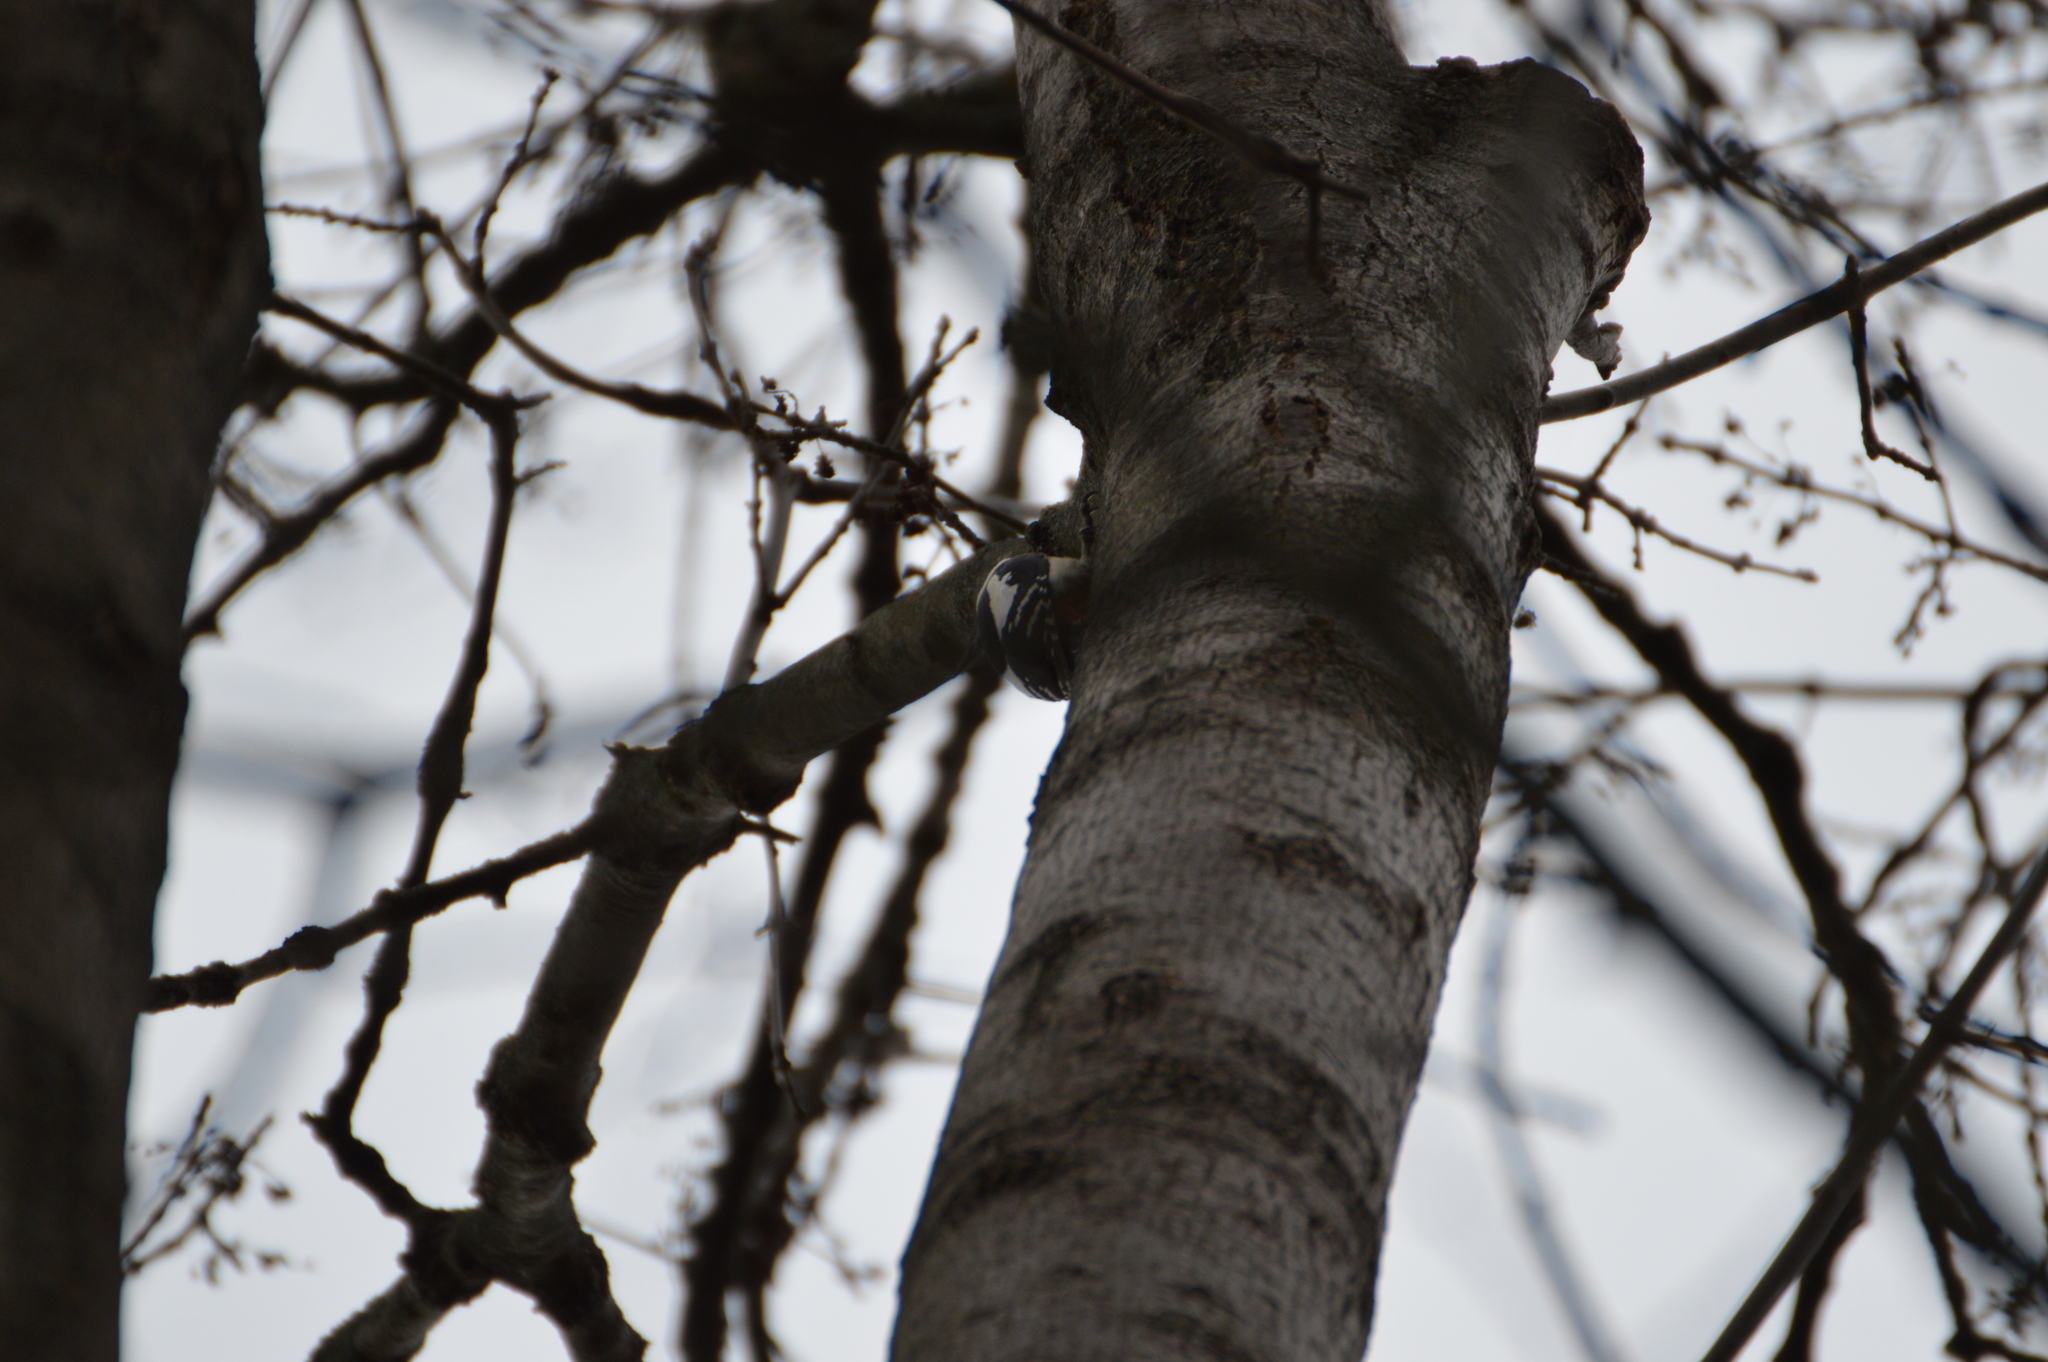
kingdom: Animalia
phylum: Chordata
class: Aves
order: Piciformes
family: Picidae
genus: Dendrocopos
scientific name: Dendrocopos major
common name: Great spotted woodpecker
